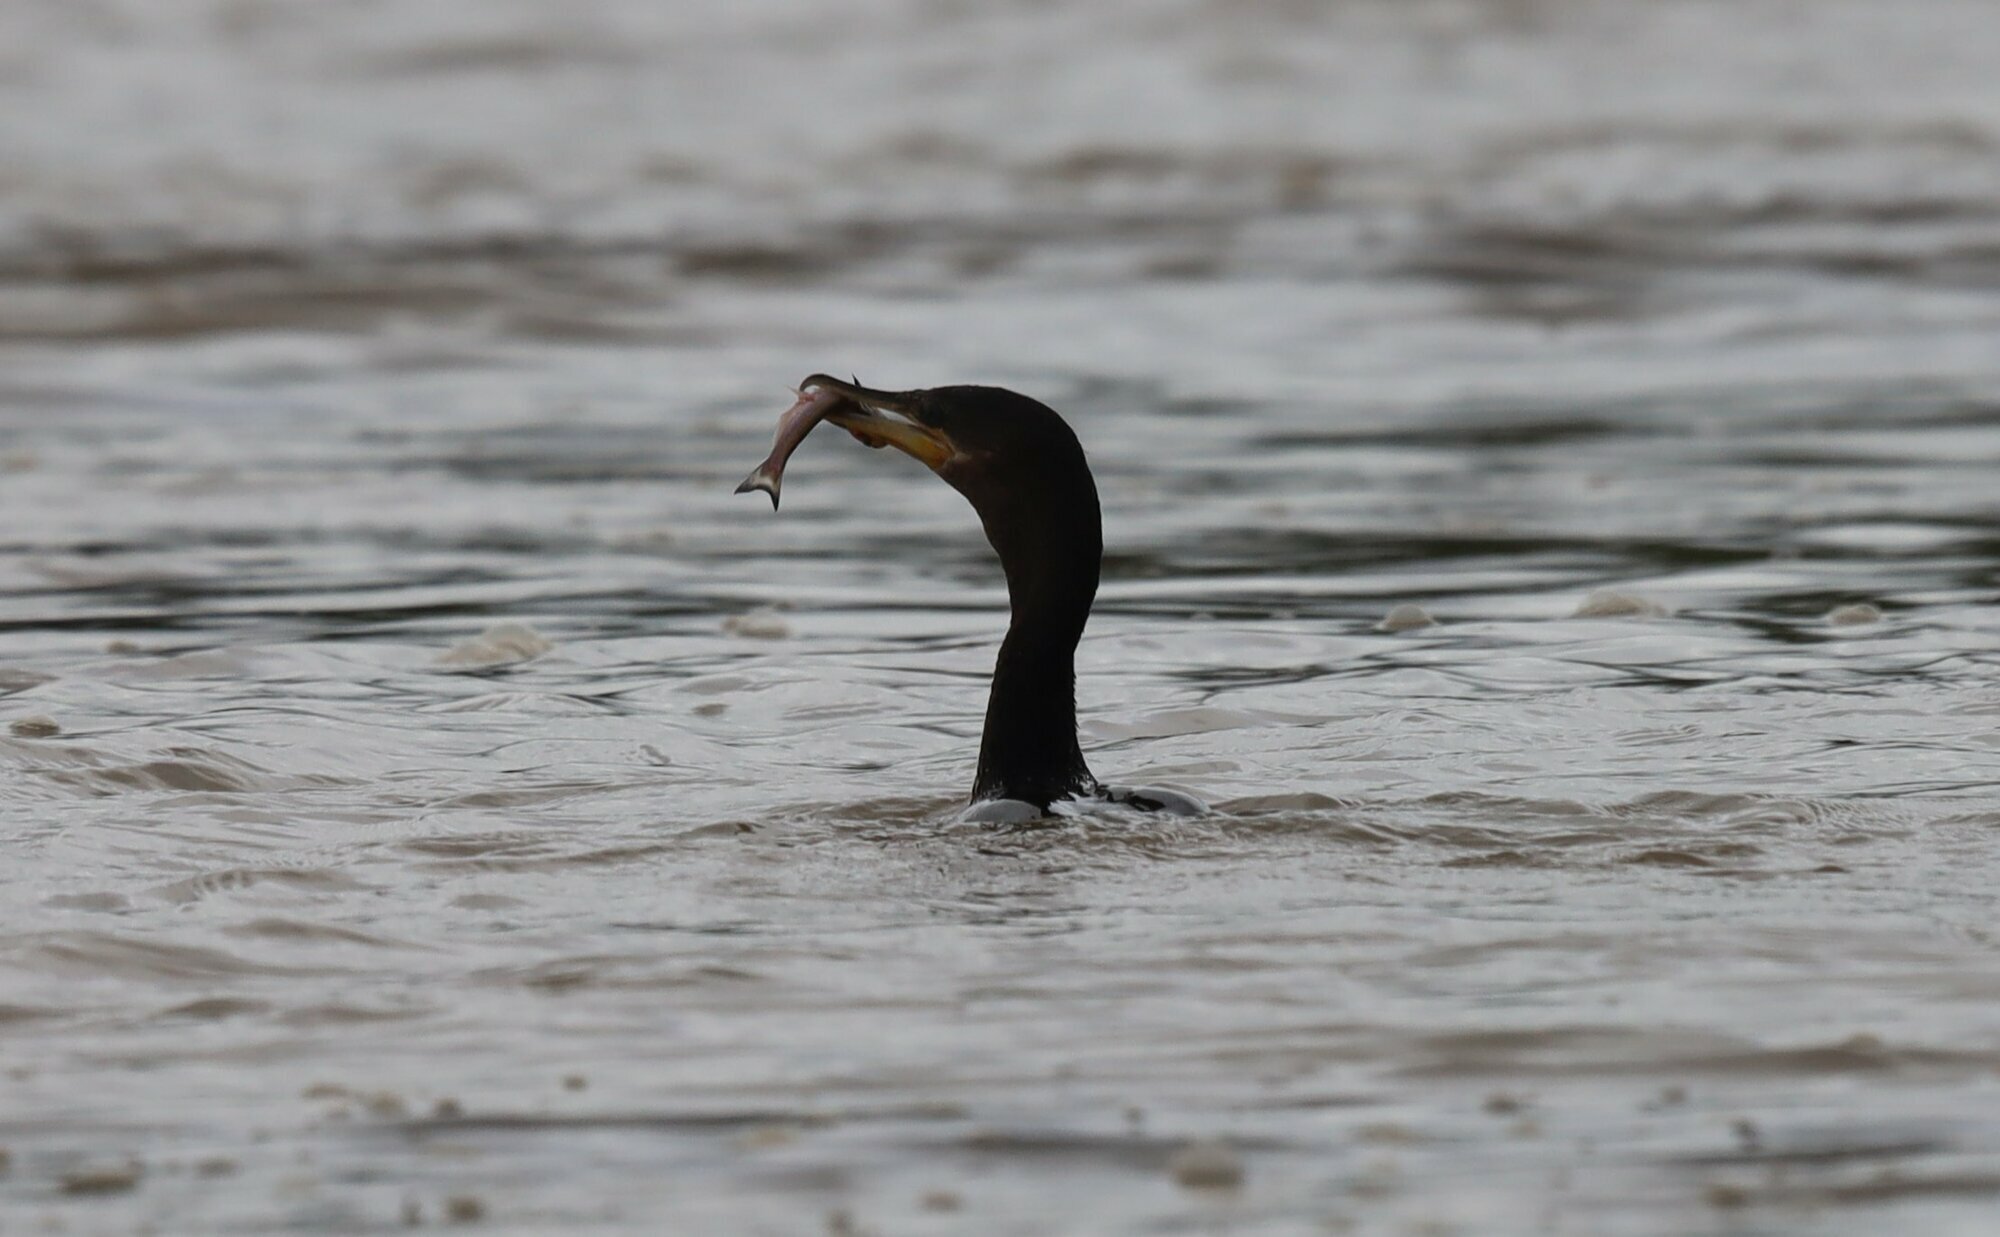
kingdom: Animalia
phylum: Chordata
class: Aves
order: Suliformes
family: Phalacrocoracidae
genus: Phalacrocorax
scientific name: Phalacrocorax brasilianus
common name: Neotropic cormorant
